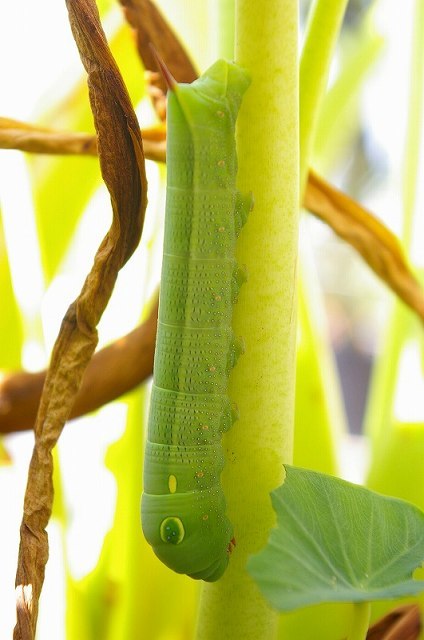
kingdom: Animalia
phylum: Arthropoda
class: Insecta
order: Lepidoptera
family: Sphingidae
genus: Hippotion
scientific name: Hippotion celerio
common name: Silver-striped hawk-moth
